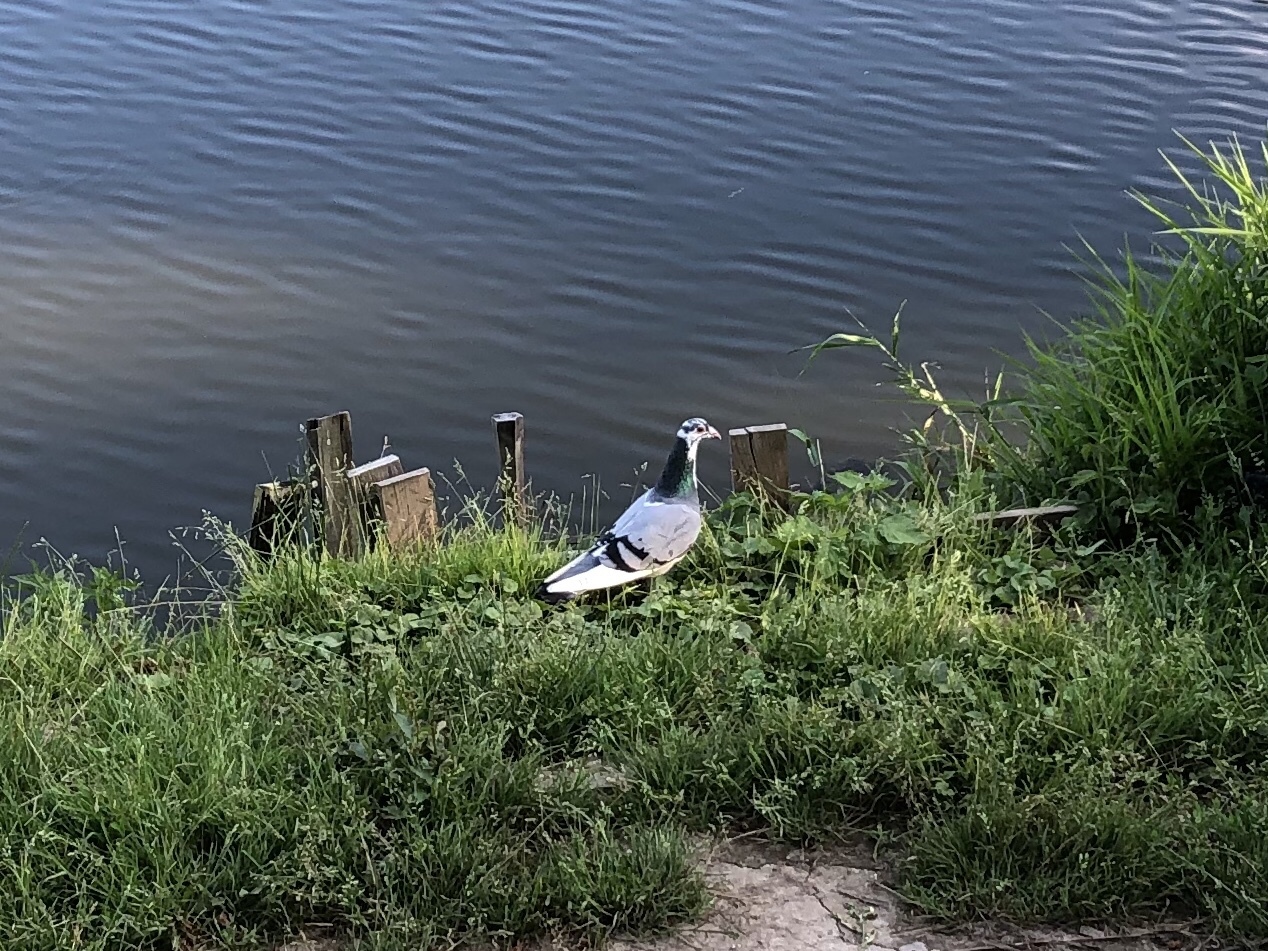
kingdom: Animalia
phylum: Chordata
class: Aves
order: Columbiformes
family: Columbidae
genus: Columba
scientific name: Columba livia
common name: Rock pigeon
